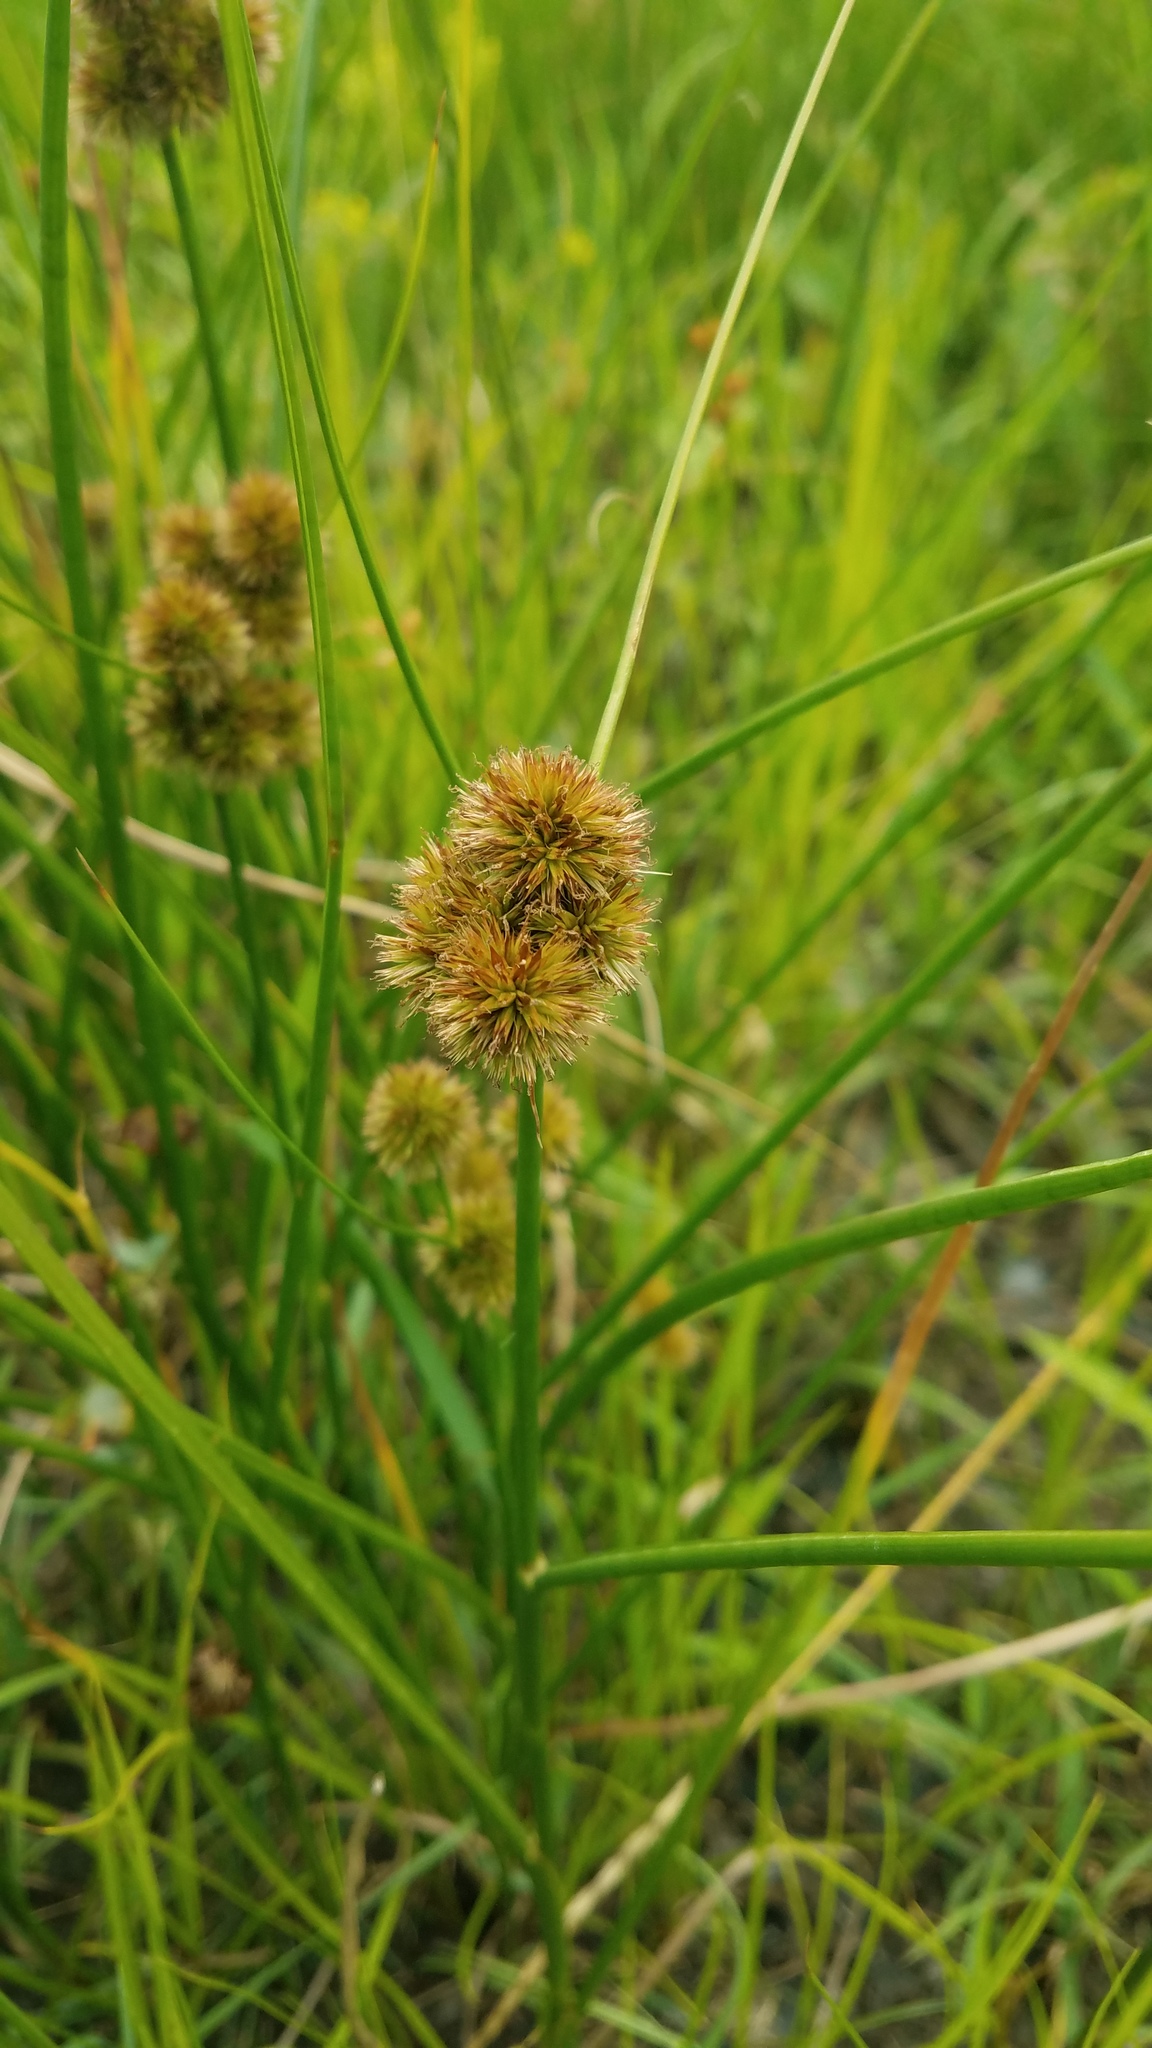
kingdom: Plantae
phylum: Tracheophyta
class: Liliopsida
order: Poales
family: Juncaceae
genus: Juncus
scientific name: Juncus torreyi
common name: Torrey's rush
